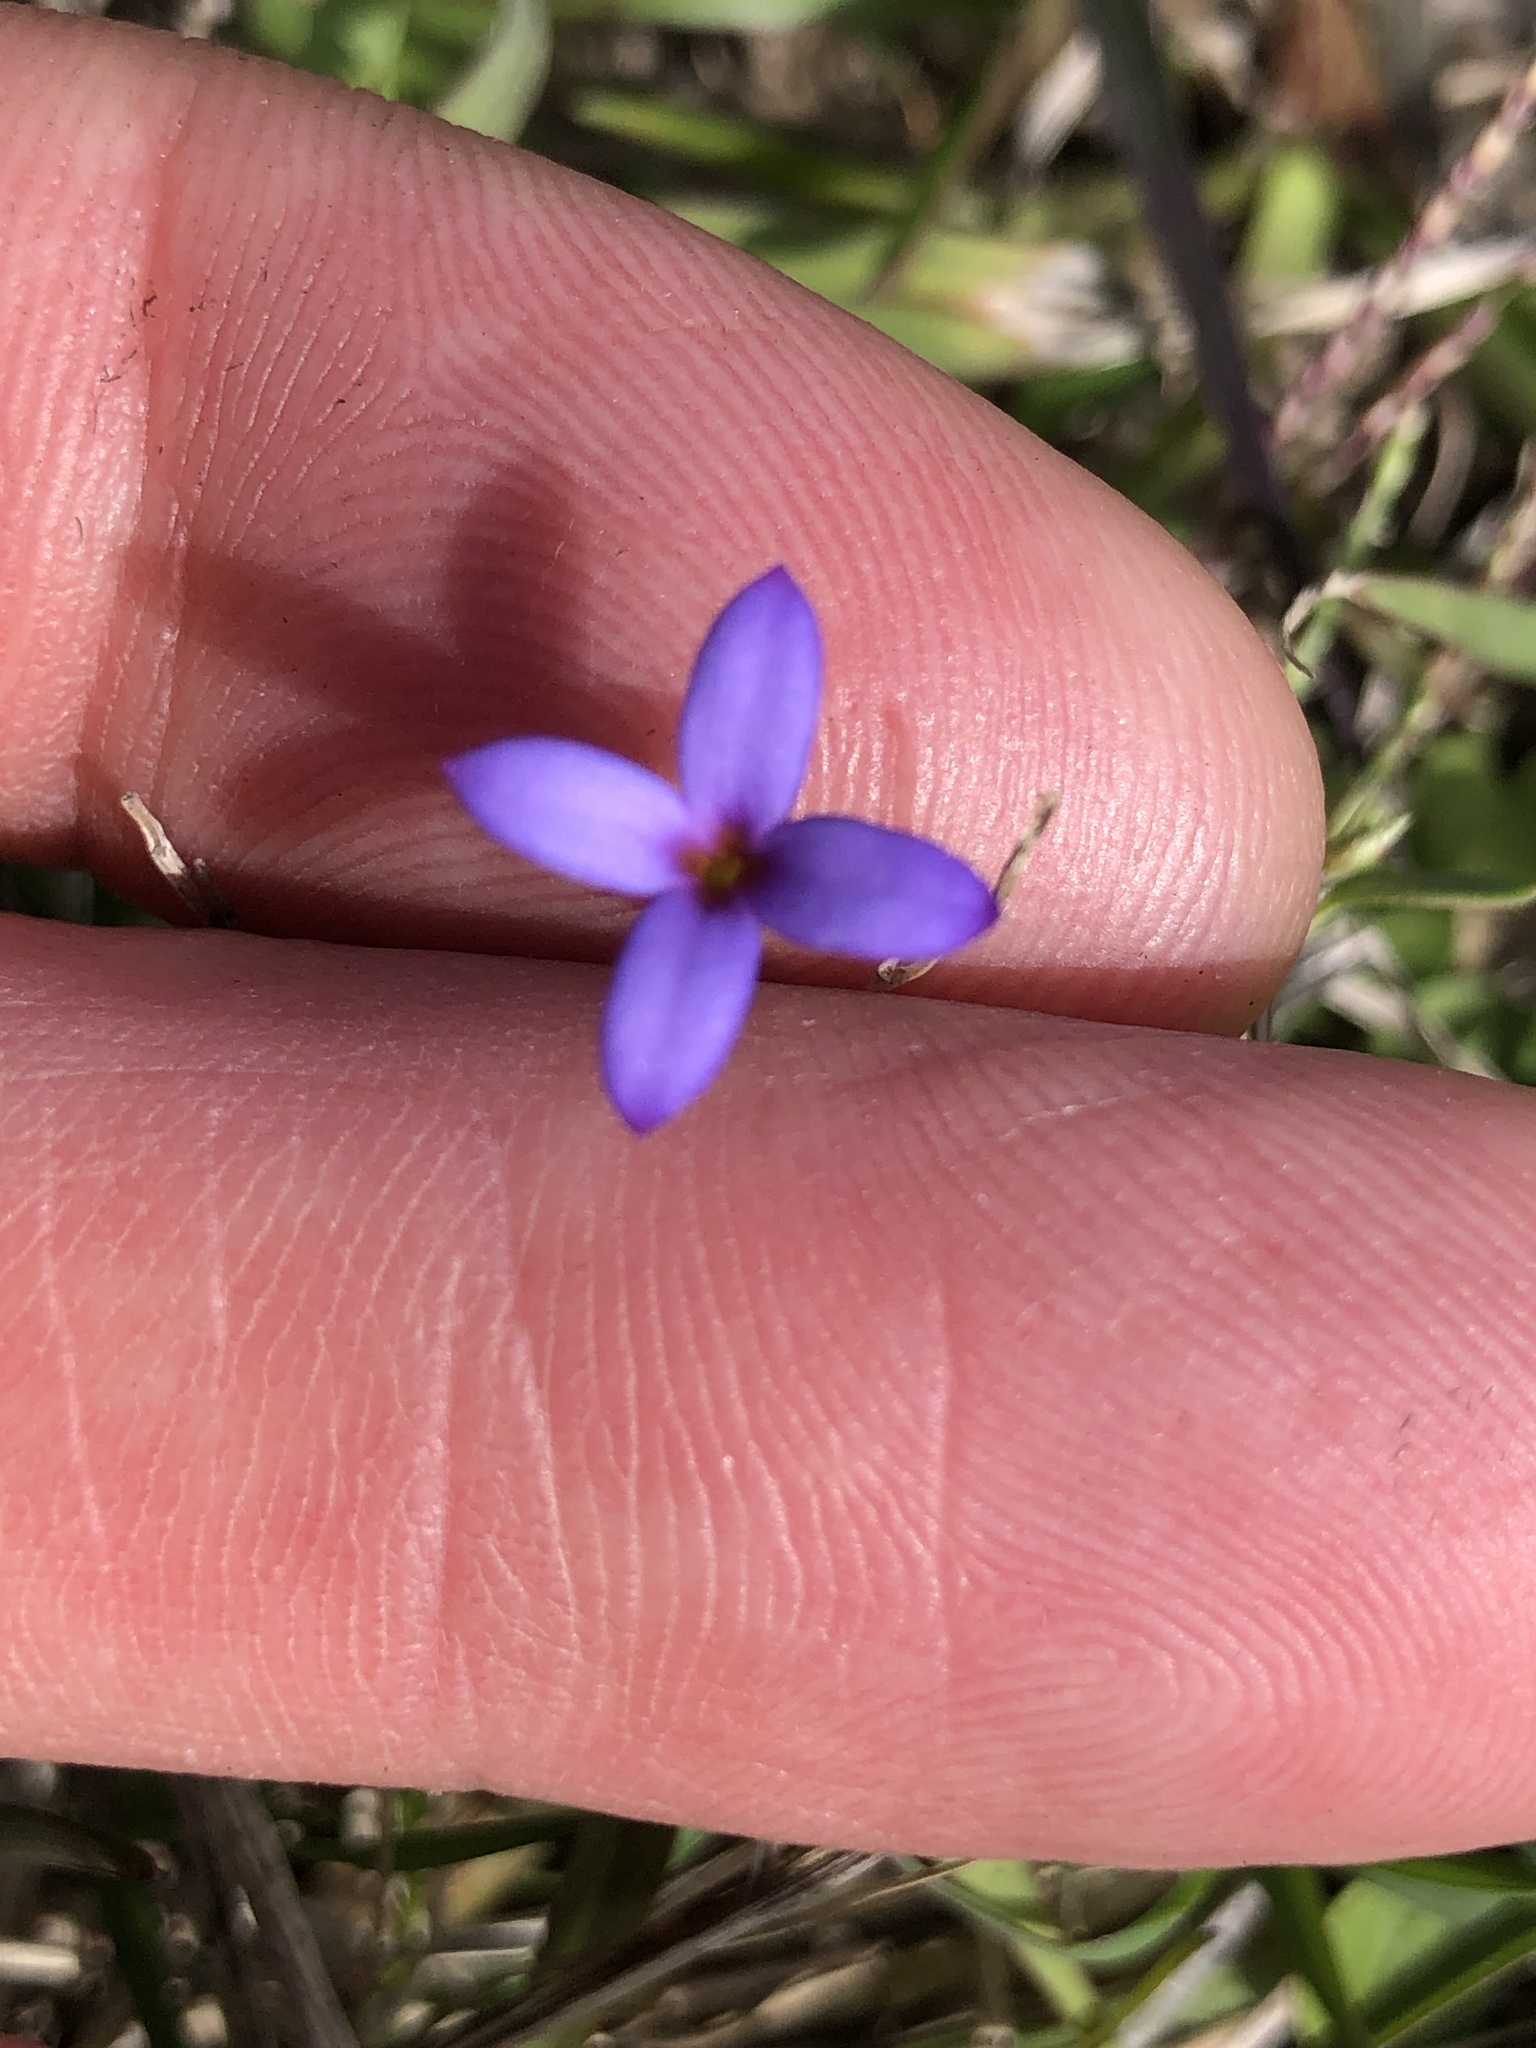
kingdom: Plantae
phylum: Tracheophyta
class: Magnoliopsida
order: Gentianales
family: Rubiaceae
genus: Houstonia
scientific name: Houstonia pusilla
